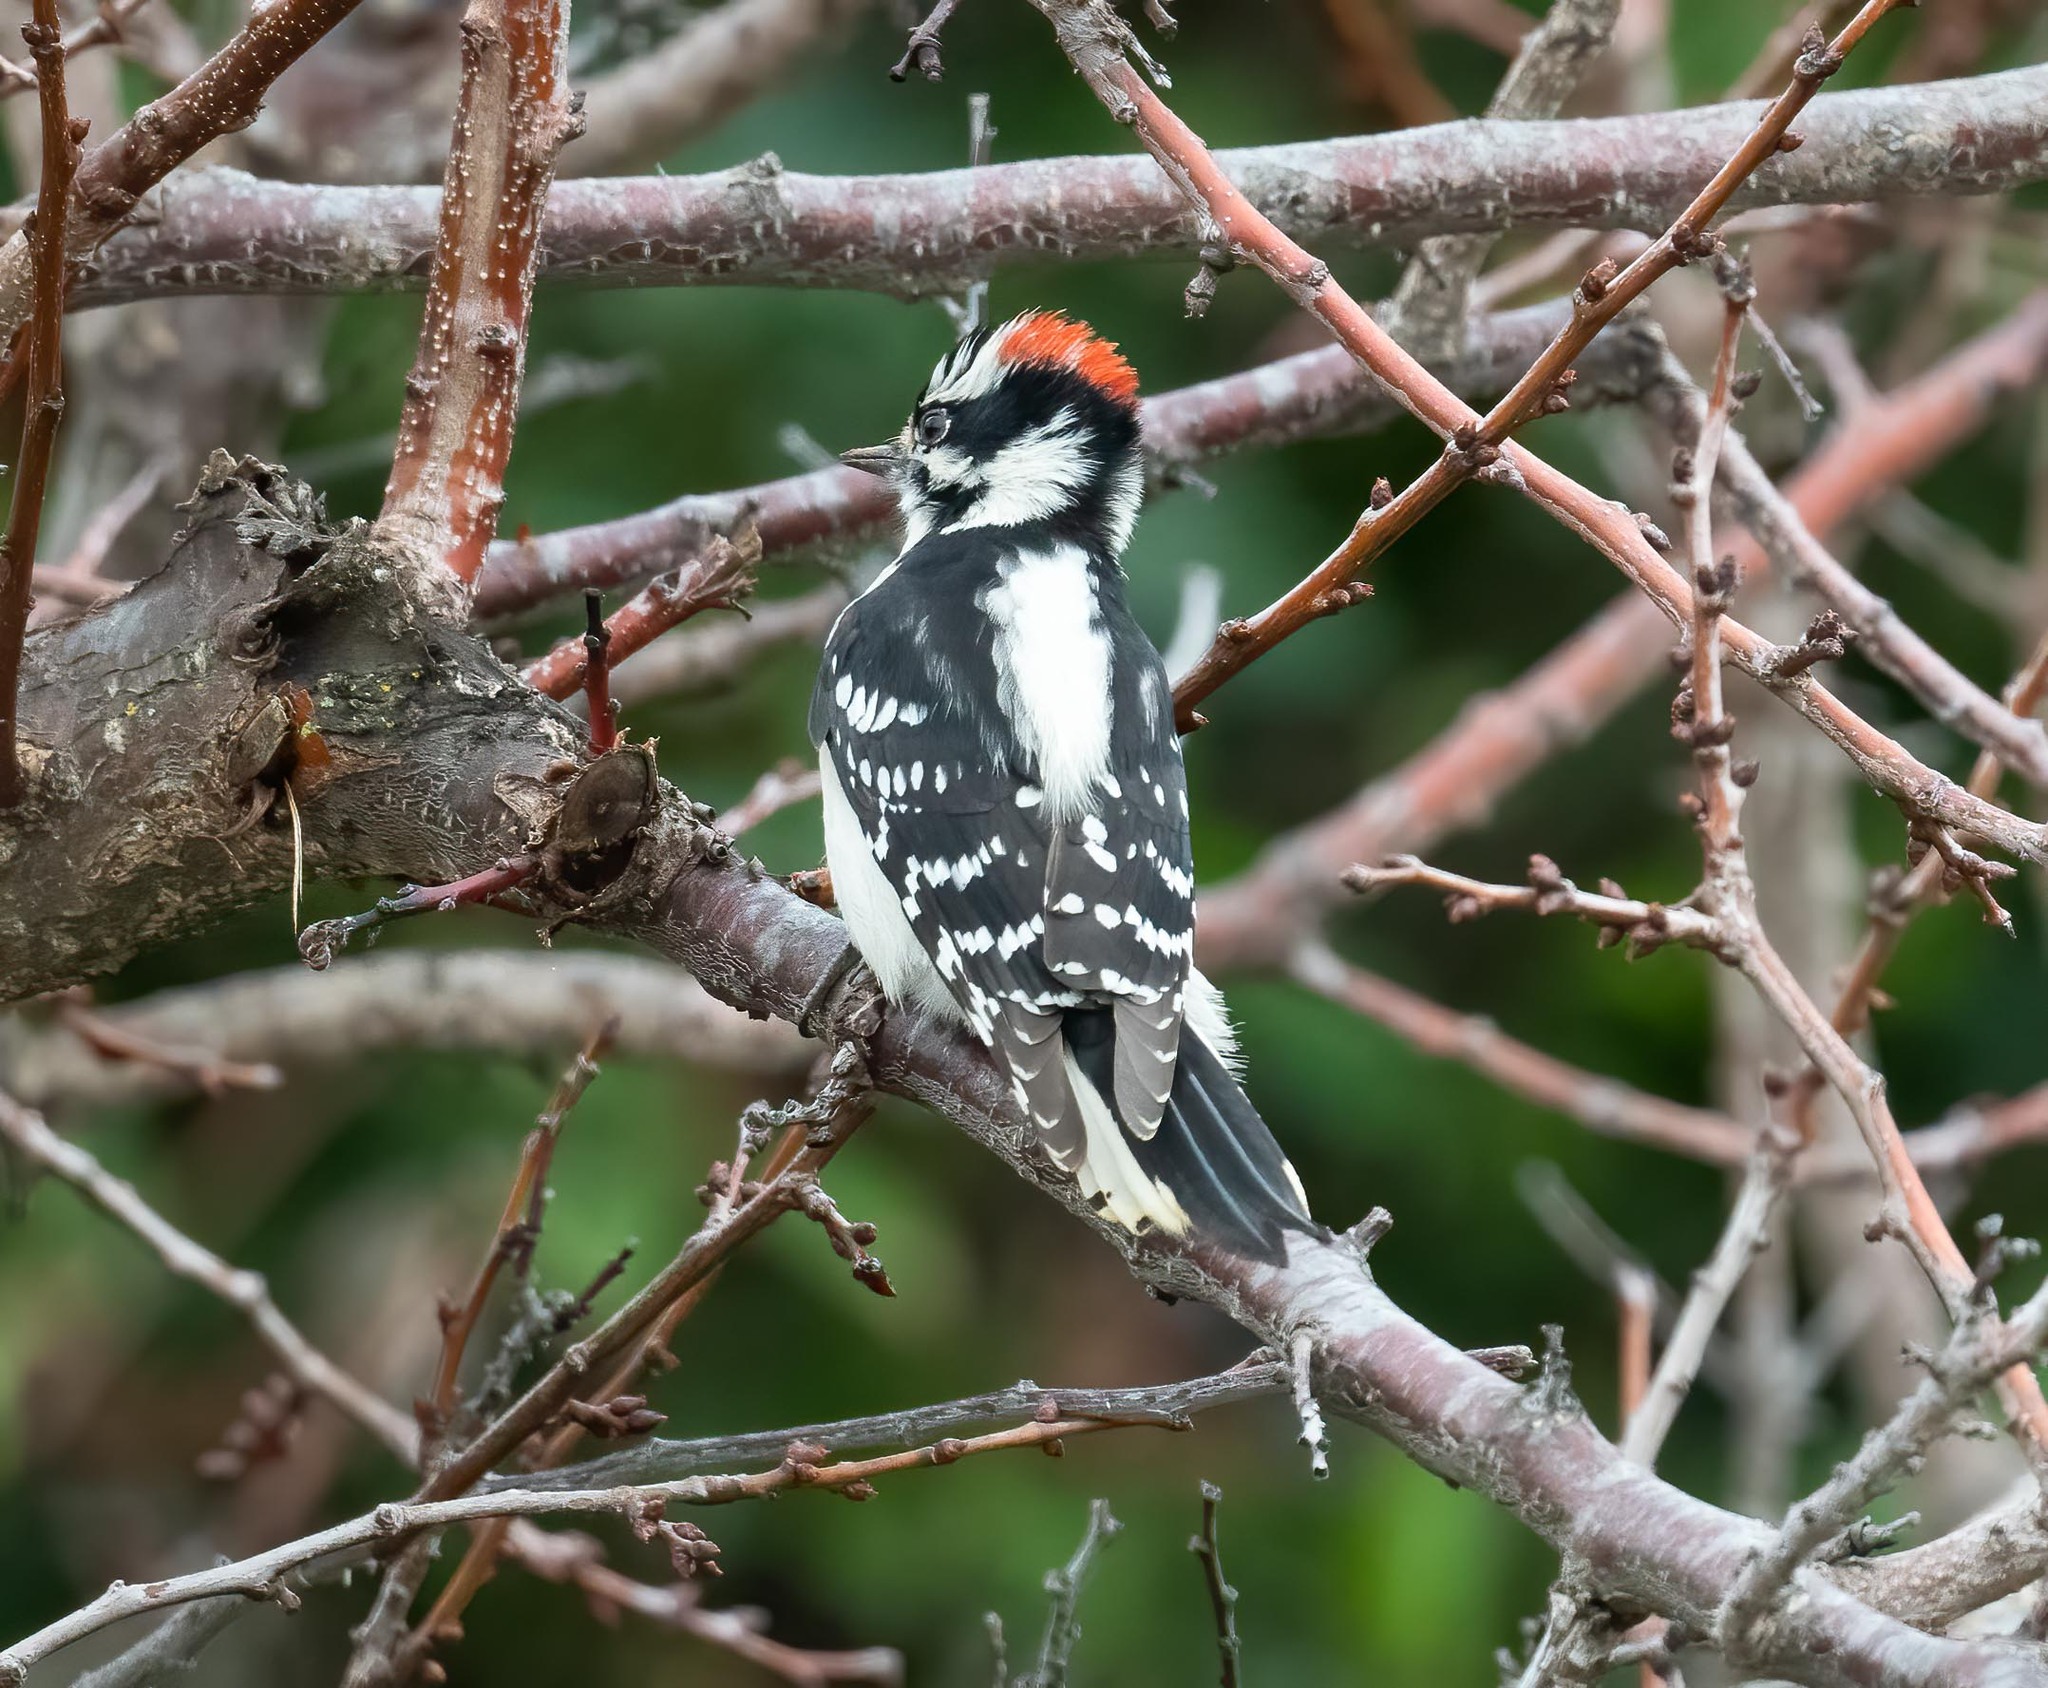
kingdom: Animalia
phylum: Chordata
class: Aves
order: Piciformes
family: Picidae
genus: Dryobates
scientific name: Dryobates pubescens
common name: Downy woodpecker
